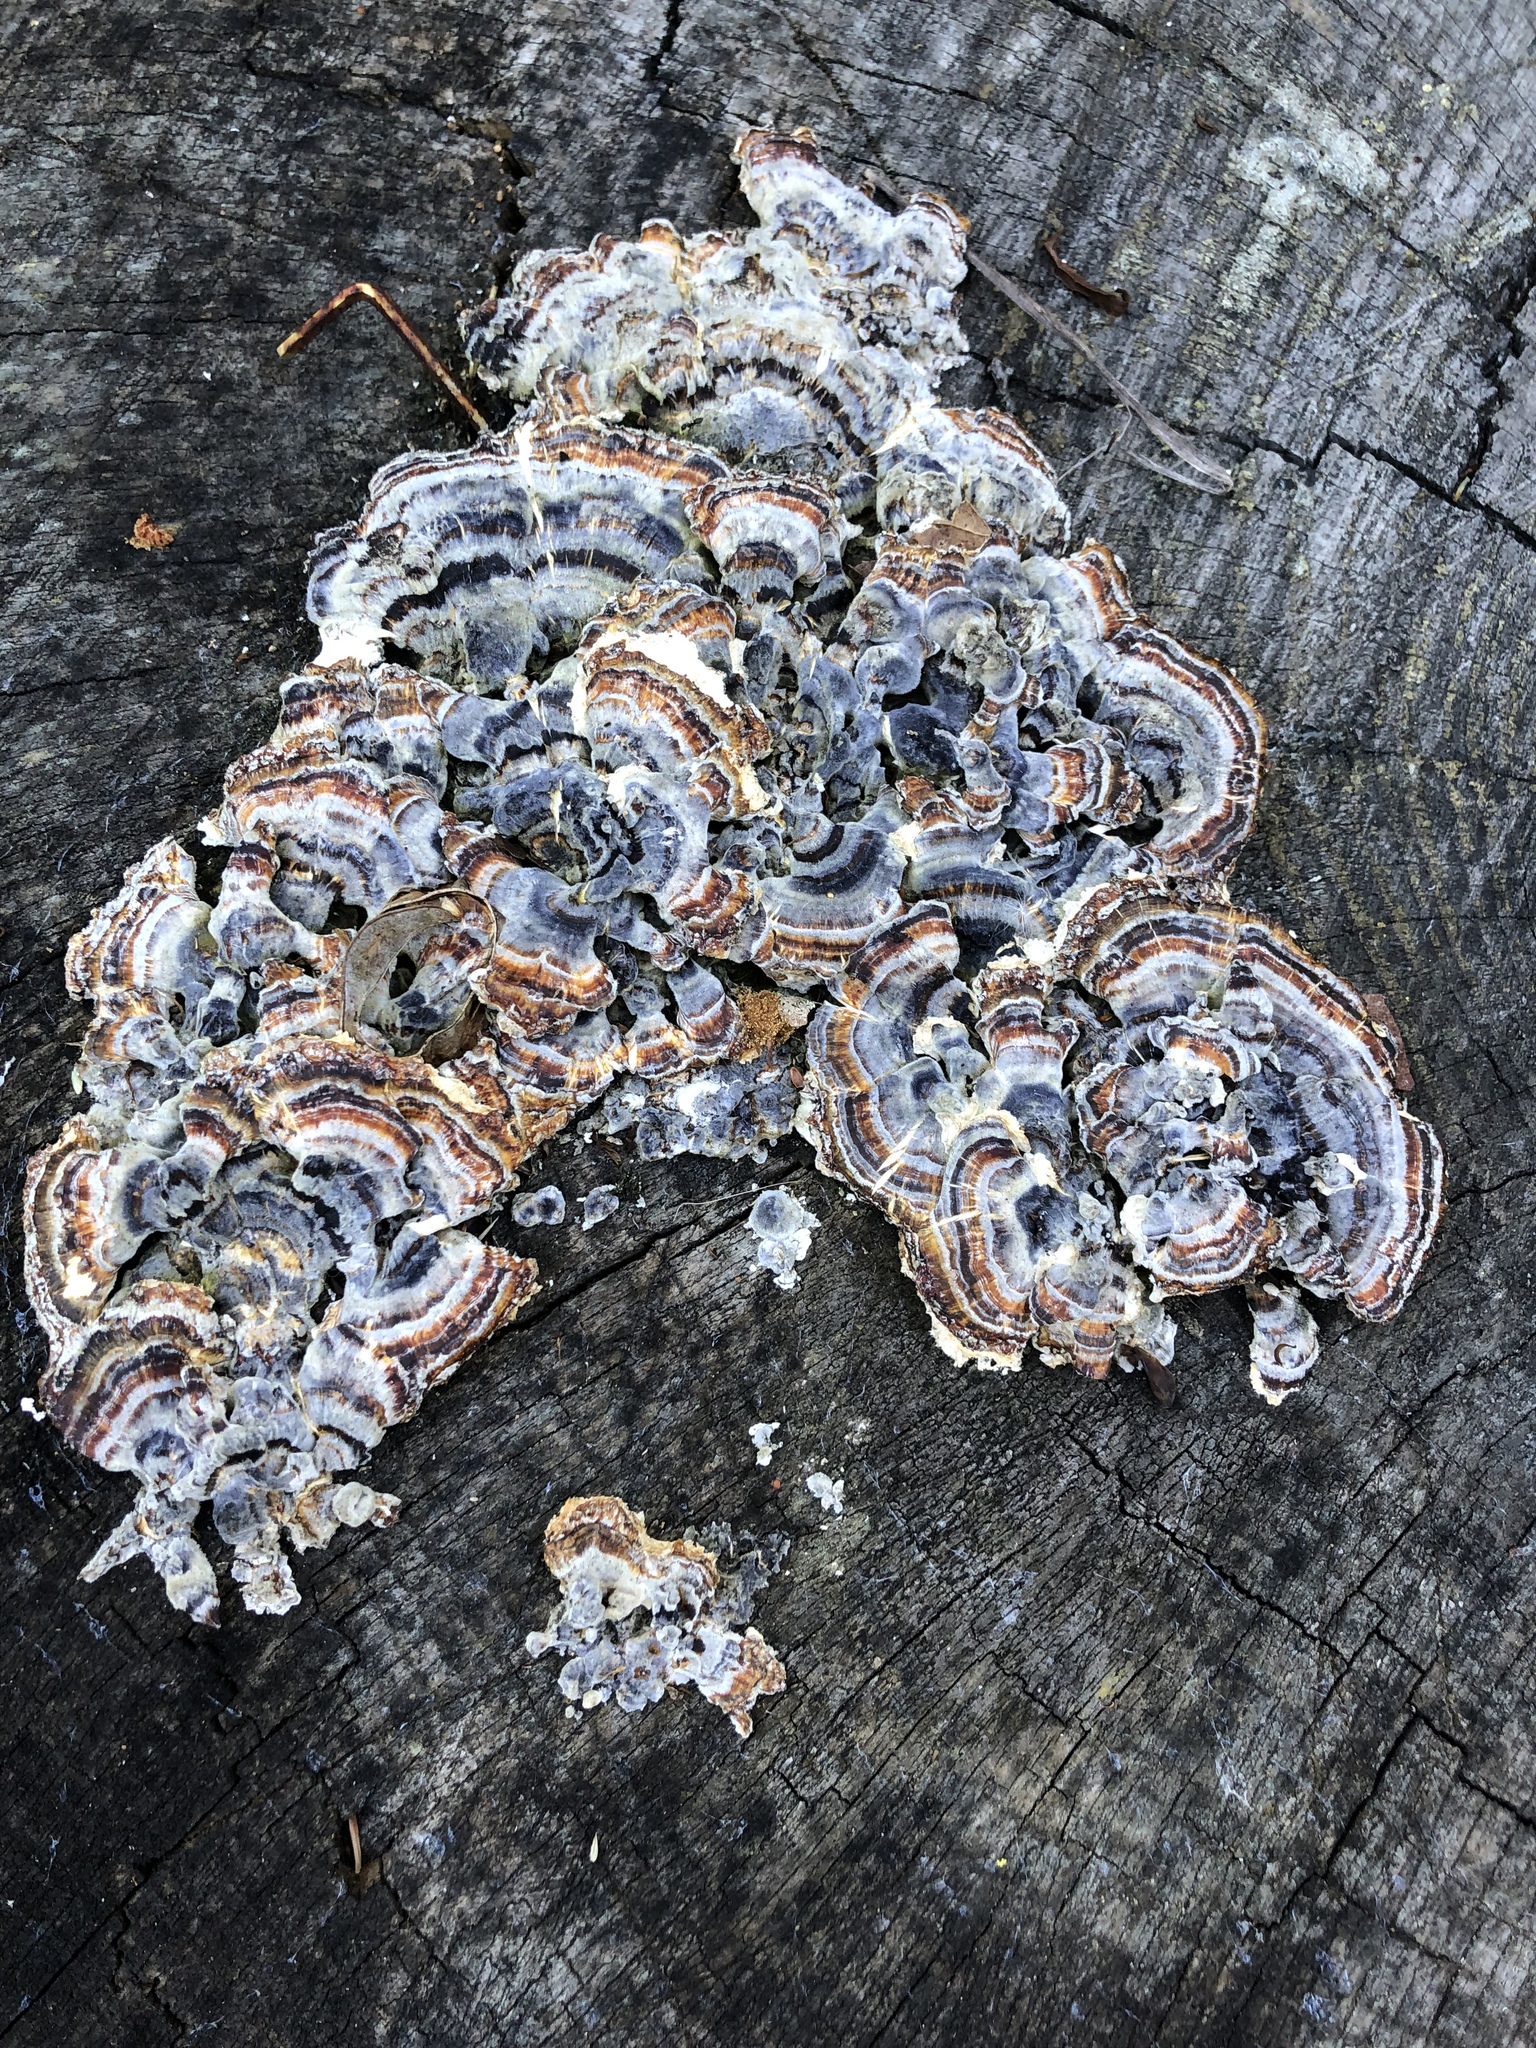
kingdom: Fungi
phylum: Basidiomycota
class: Agaricomycetes
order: Polyporales
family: Polyporaceae
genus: Trametes
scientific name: Trametes versicolor
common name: Turkeytail
